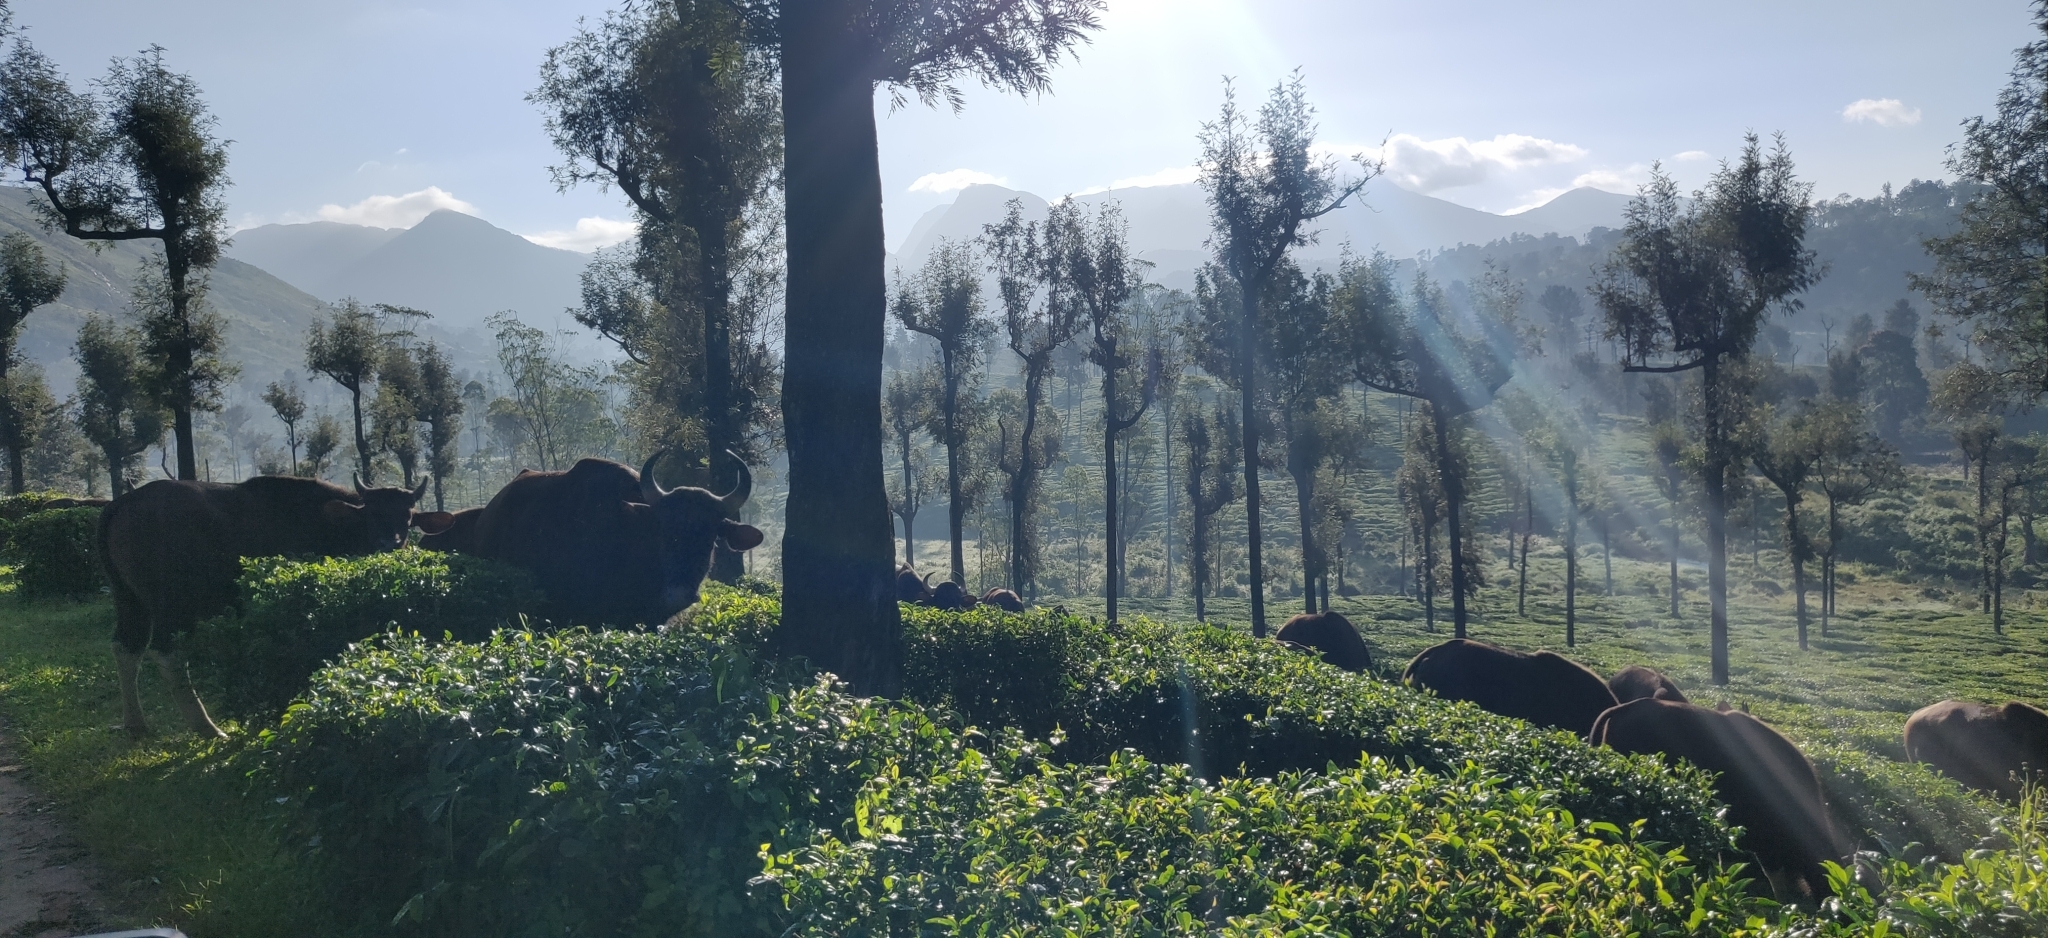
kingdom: Animalia
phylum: Chordata
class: Mammalia
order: Artiodactyla
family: Bovidae
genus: Bos
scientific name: Bos frontalis
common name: Gaur
